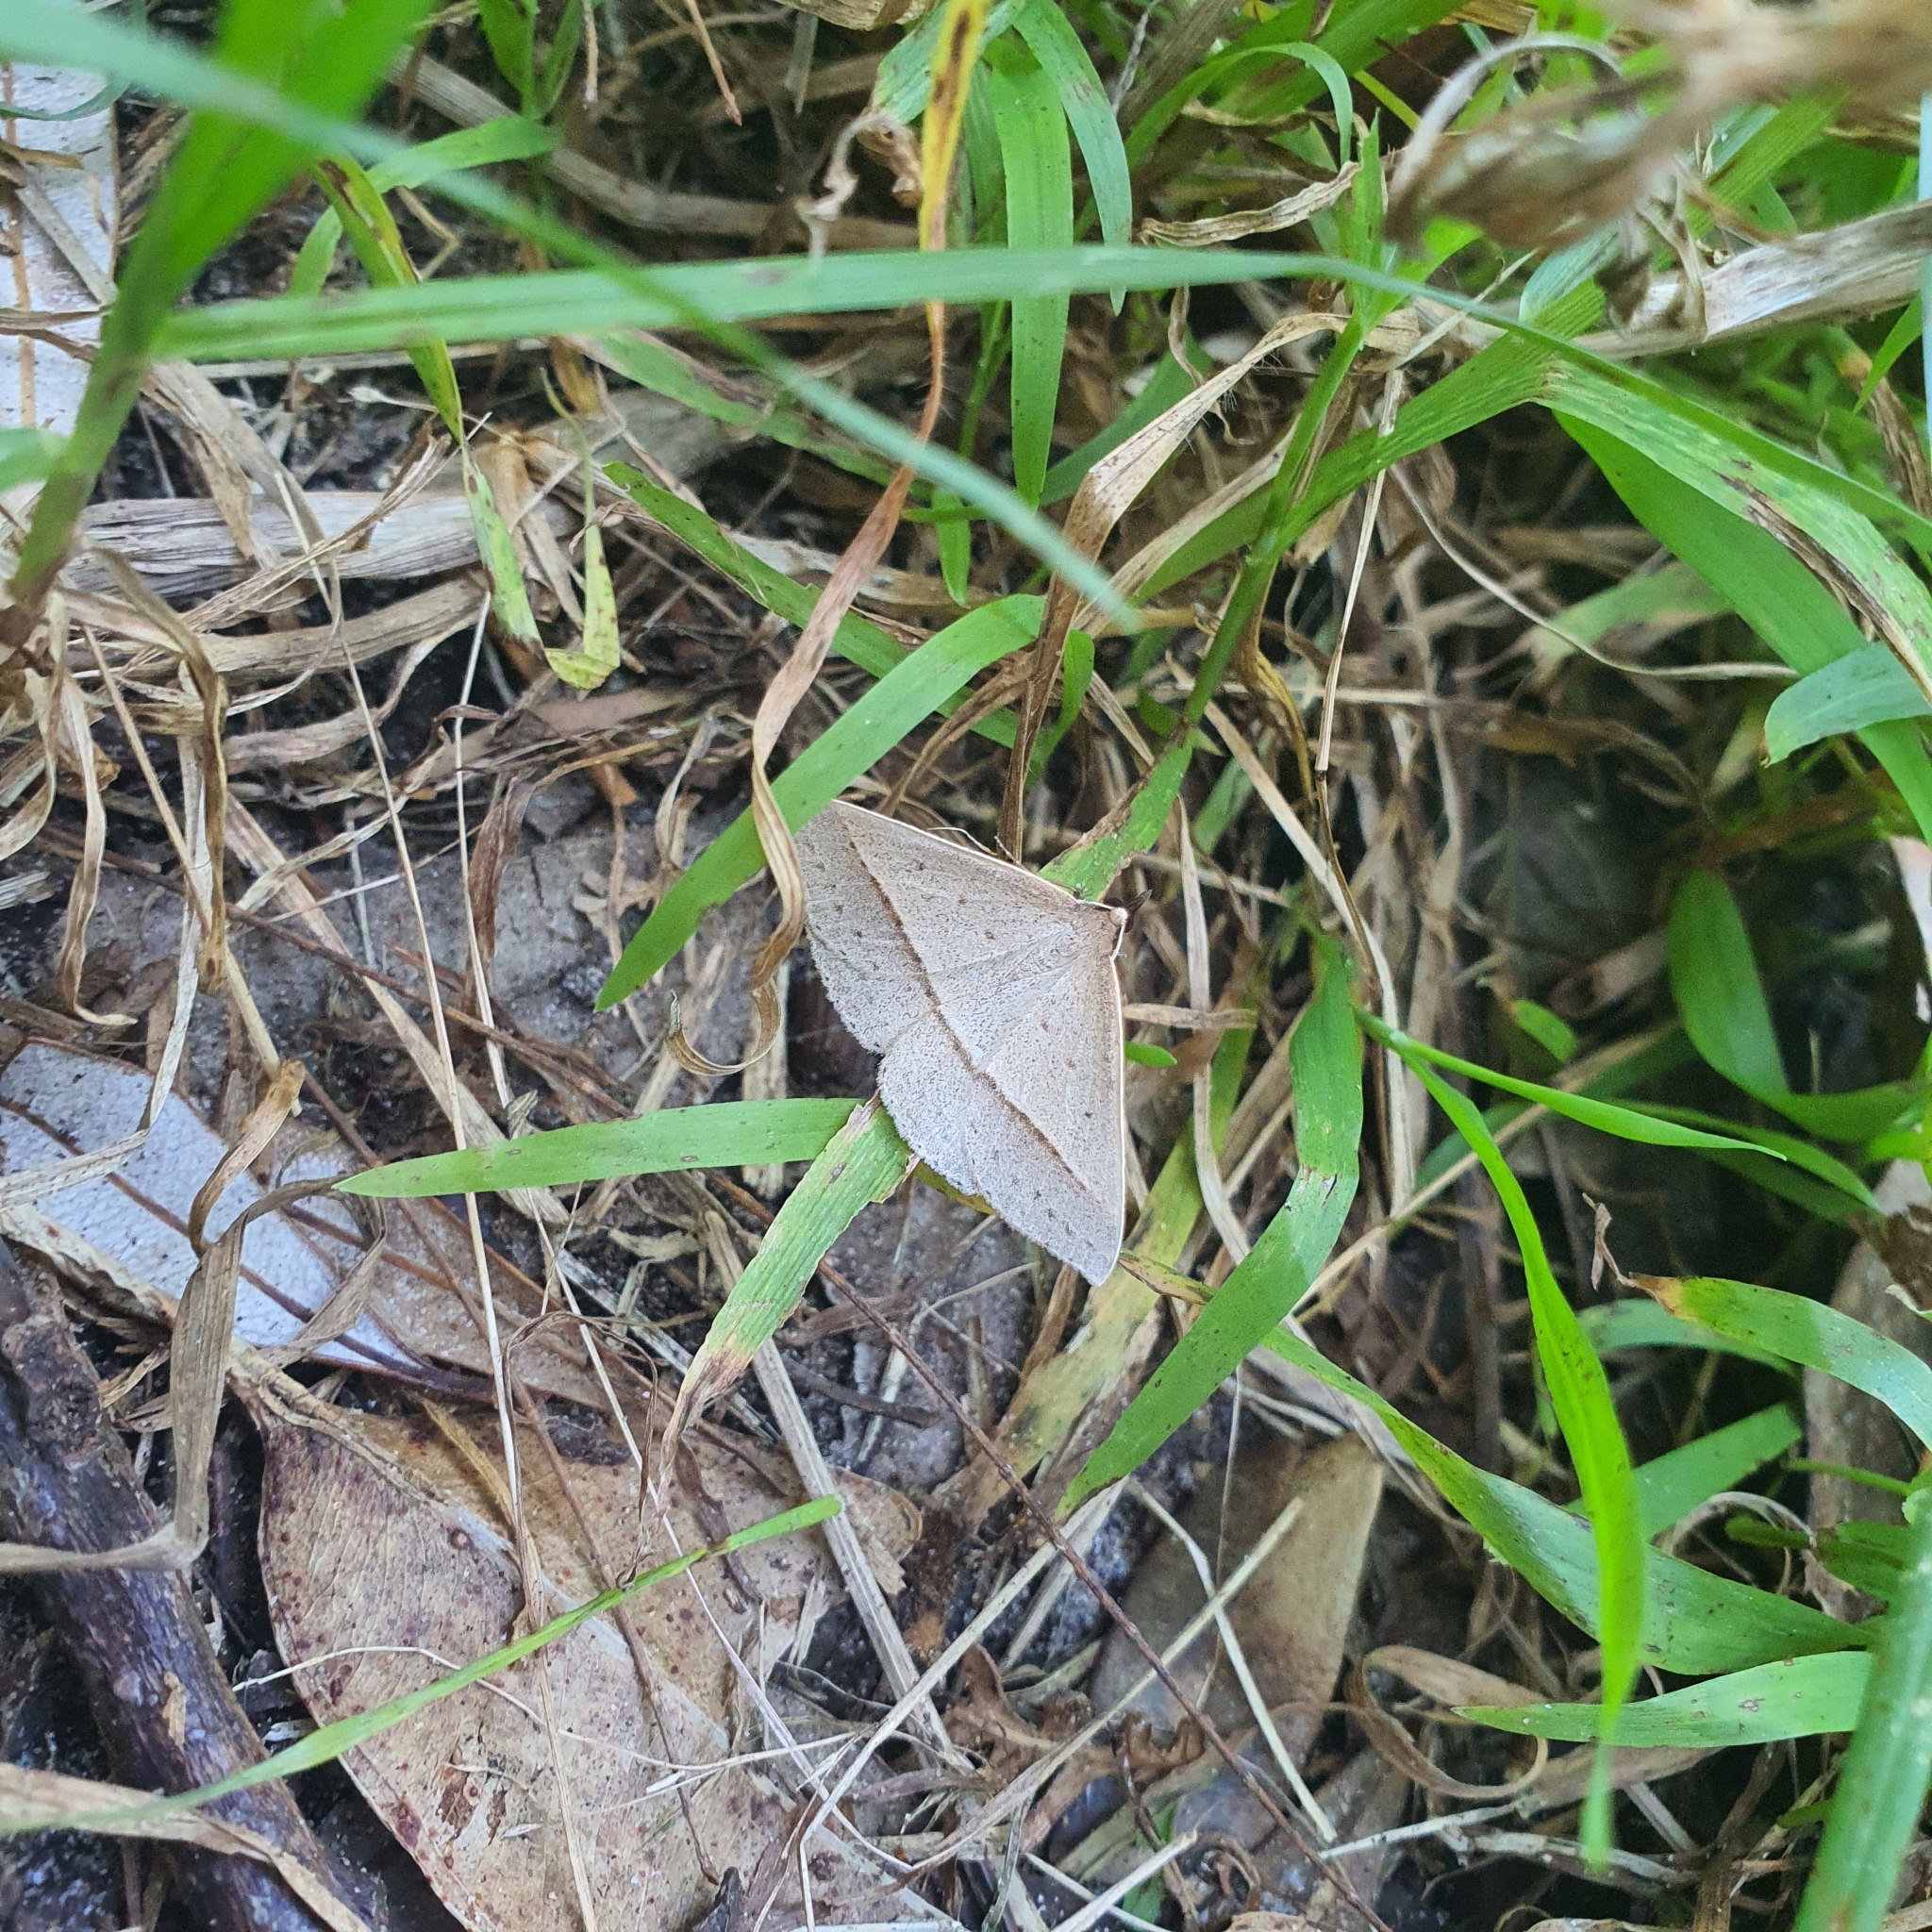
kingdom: Animalia
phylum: Arthropoda
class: Insecta
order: Lepidoptera
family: Geometridae
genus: Epidesmia
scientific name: Epidesmia tryxaria
